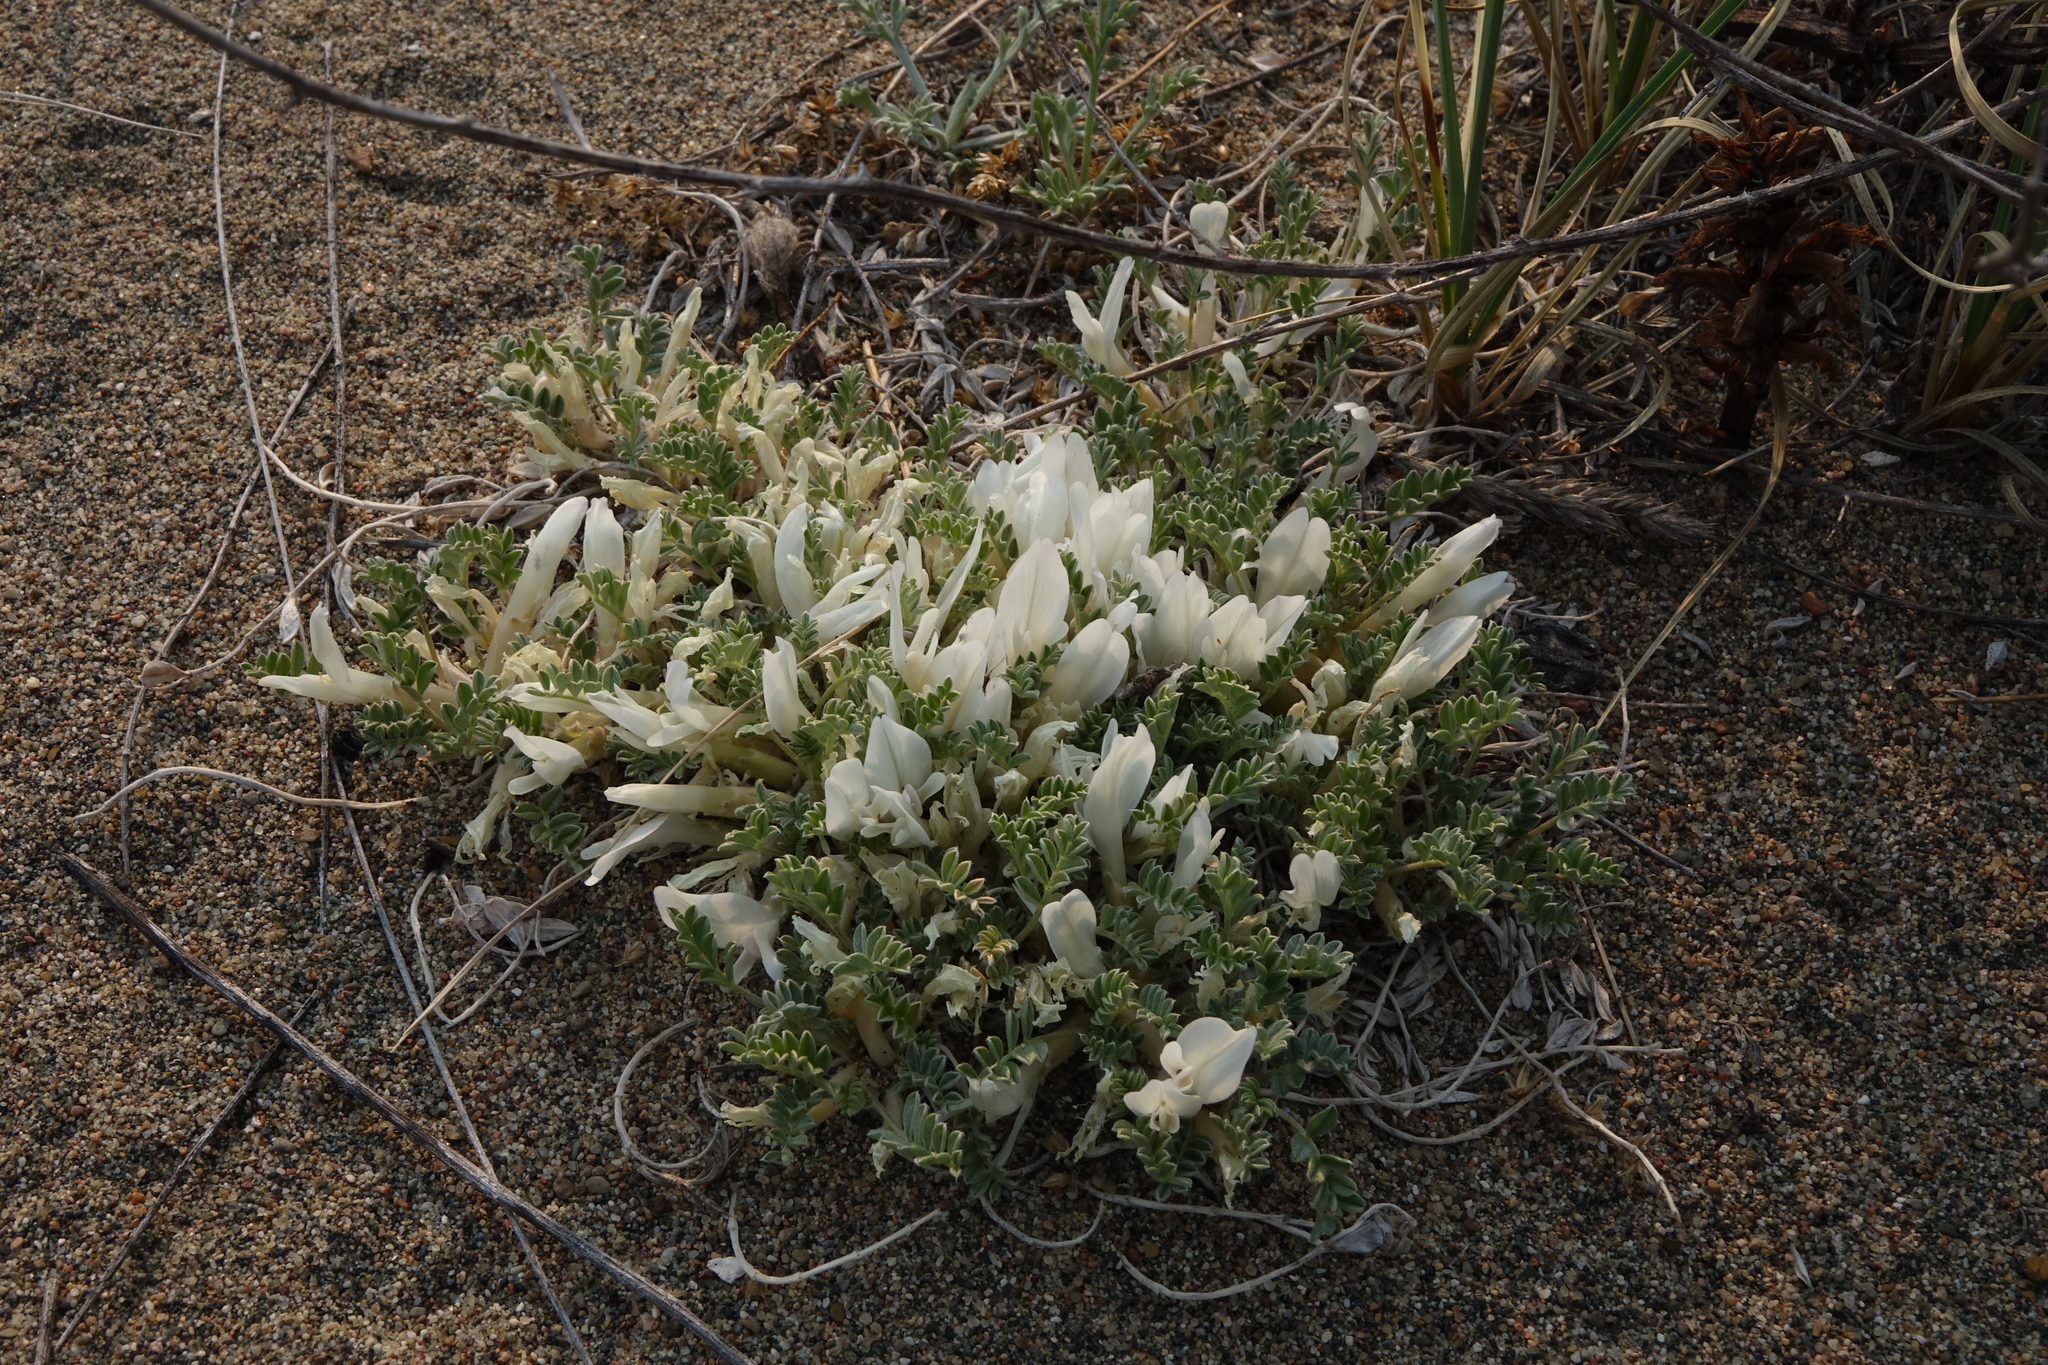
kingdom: Plantae
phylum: Tracheophyta
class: Magnoliopsida
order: Fabales
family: Fabaceae
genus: Astragalus
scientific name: Astragalus teskhemicus
